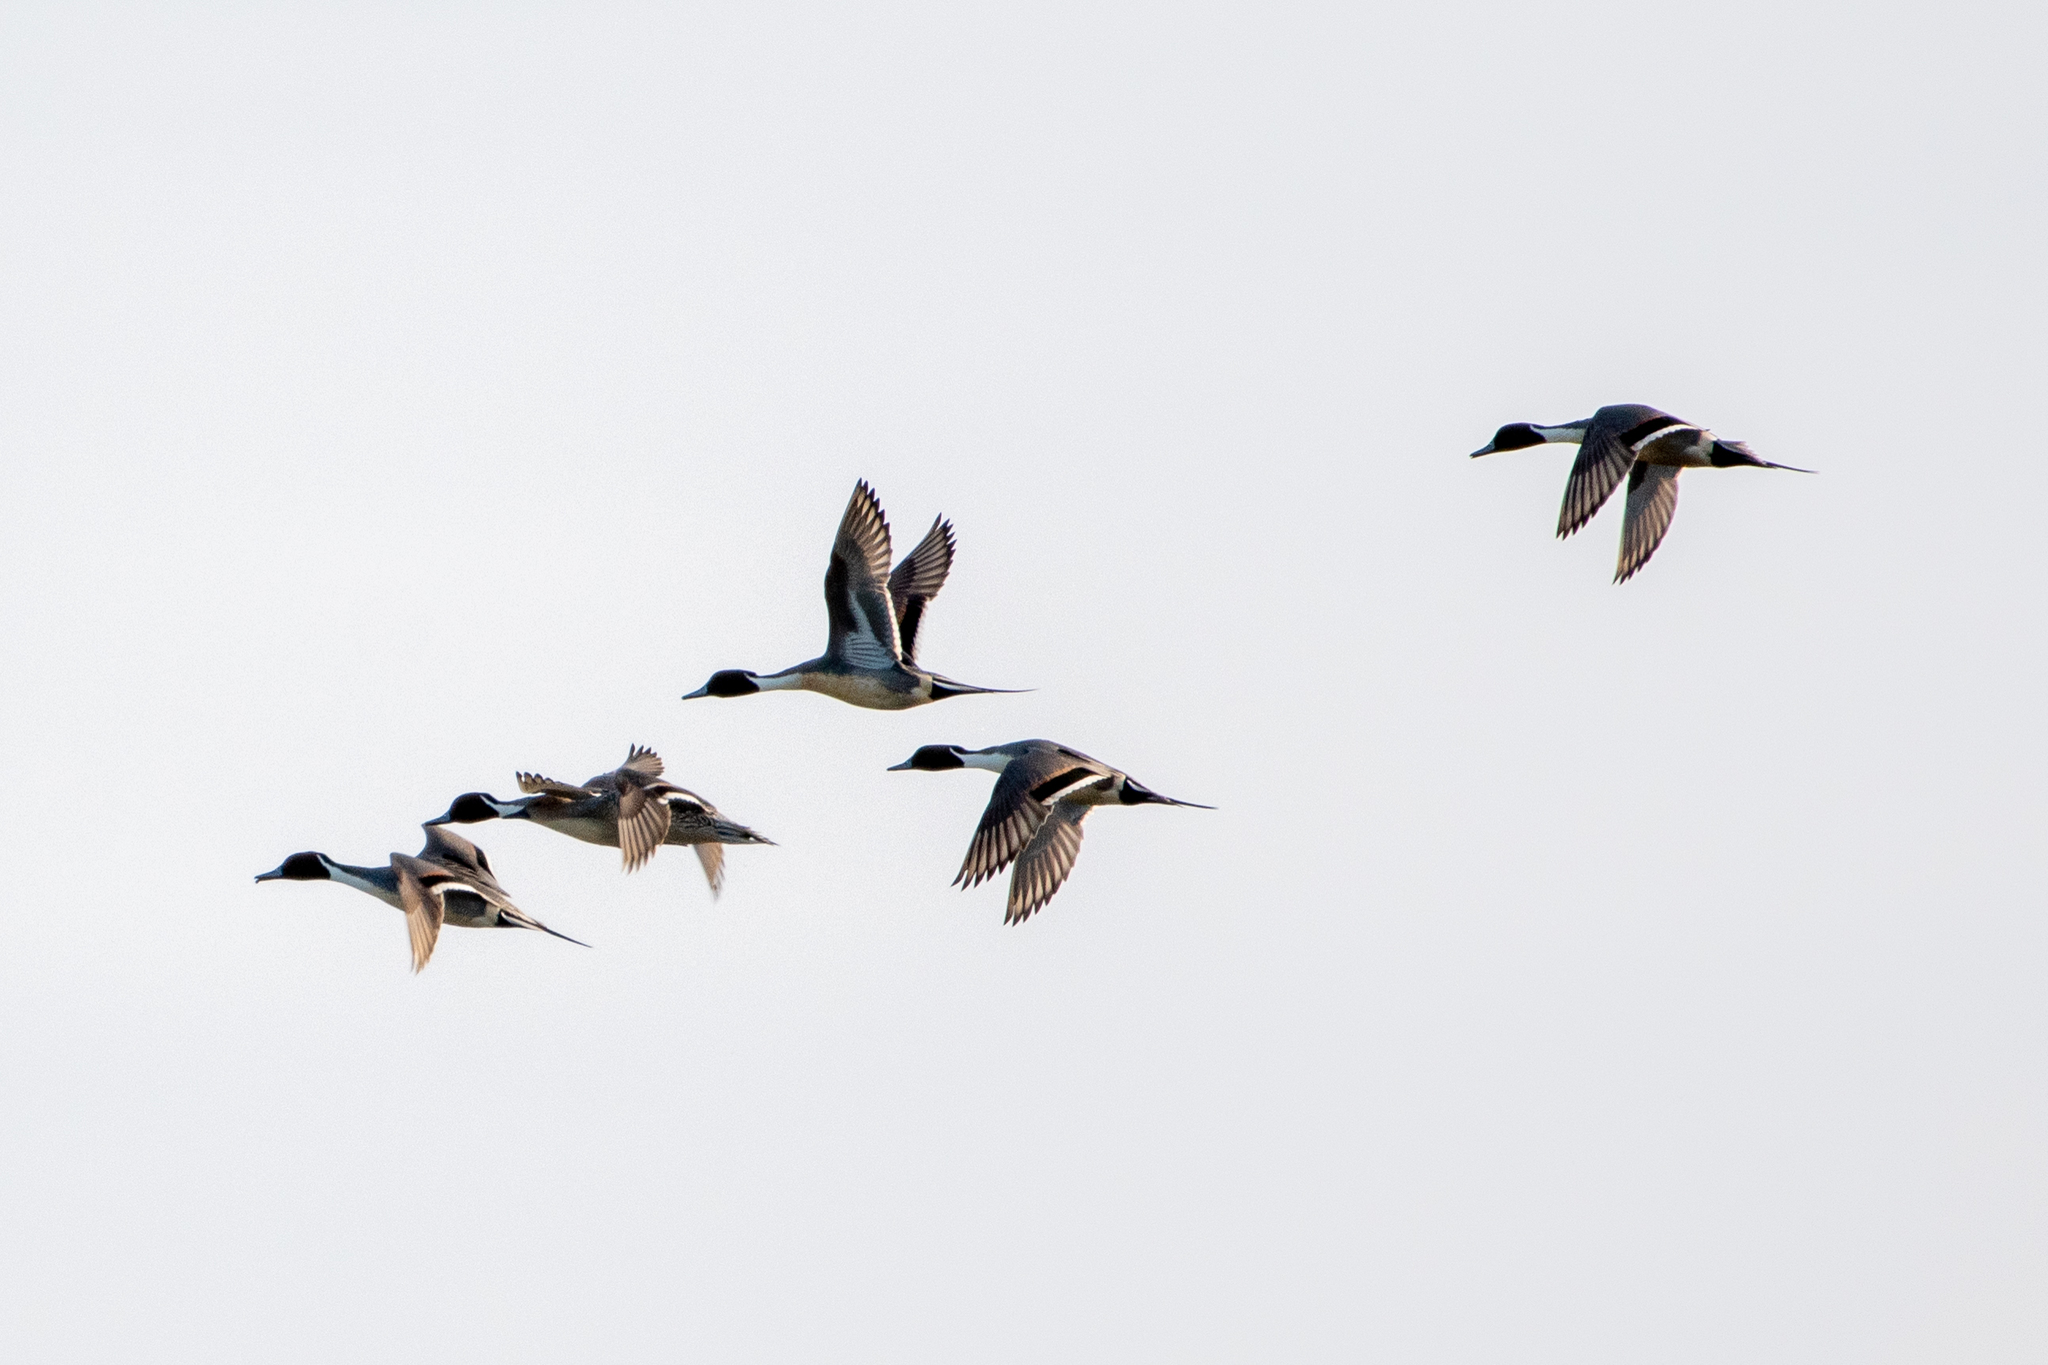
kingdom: Animalia
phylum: Chordata
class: Aves
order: Anseriformes
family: Anatidae
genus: Anas
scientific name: Anas acuta
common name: Northern pintail
